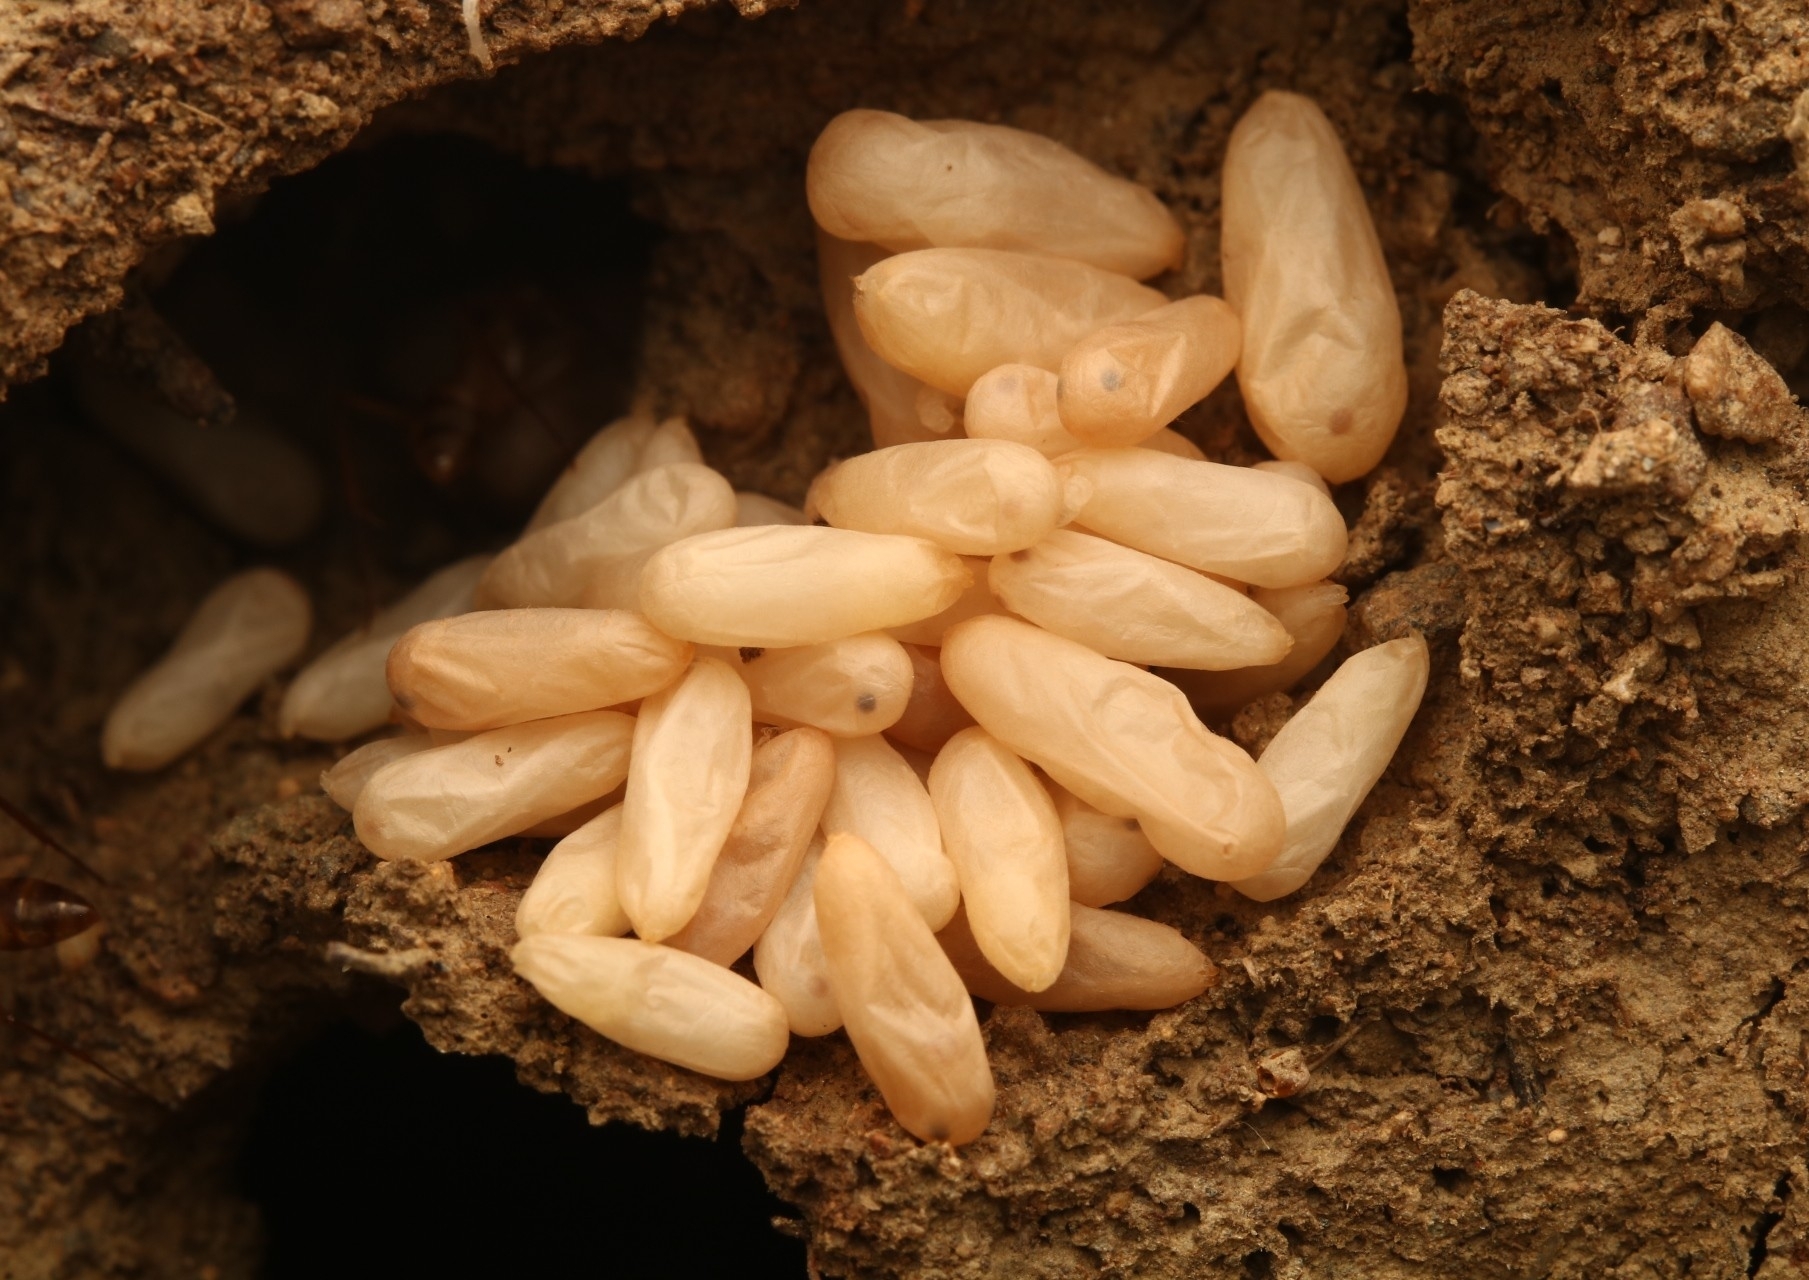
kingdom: Animalia
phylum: Arthropoda
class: Insecta
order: Hymenoptera
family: Formicidae
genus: Camponotus
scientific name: Camponotus
